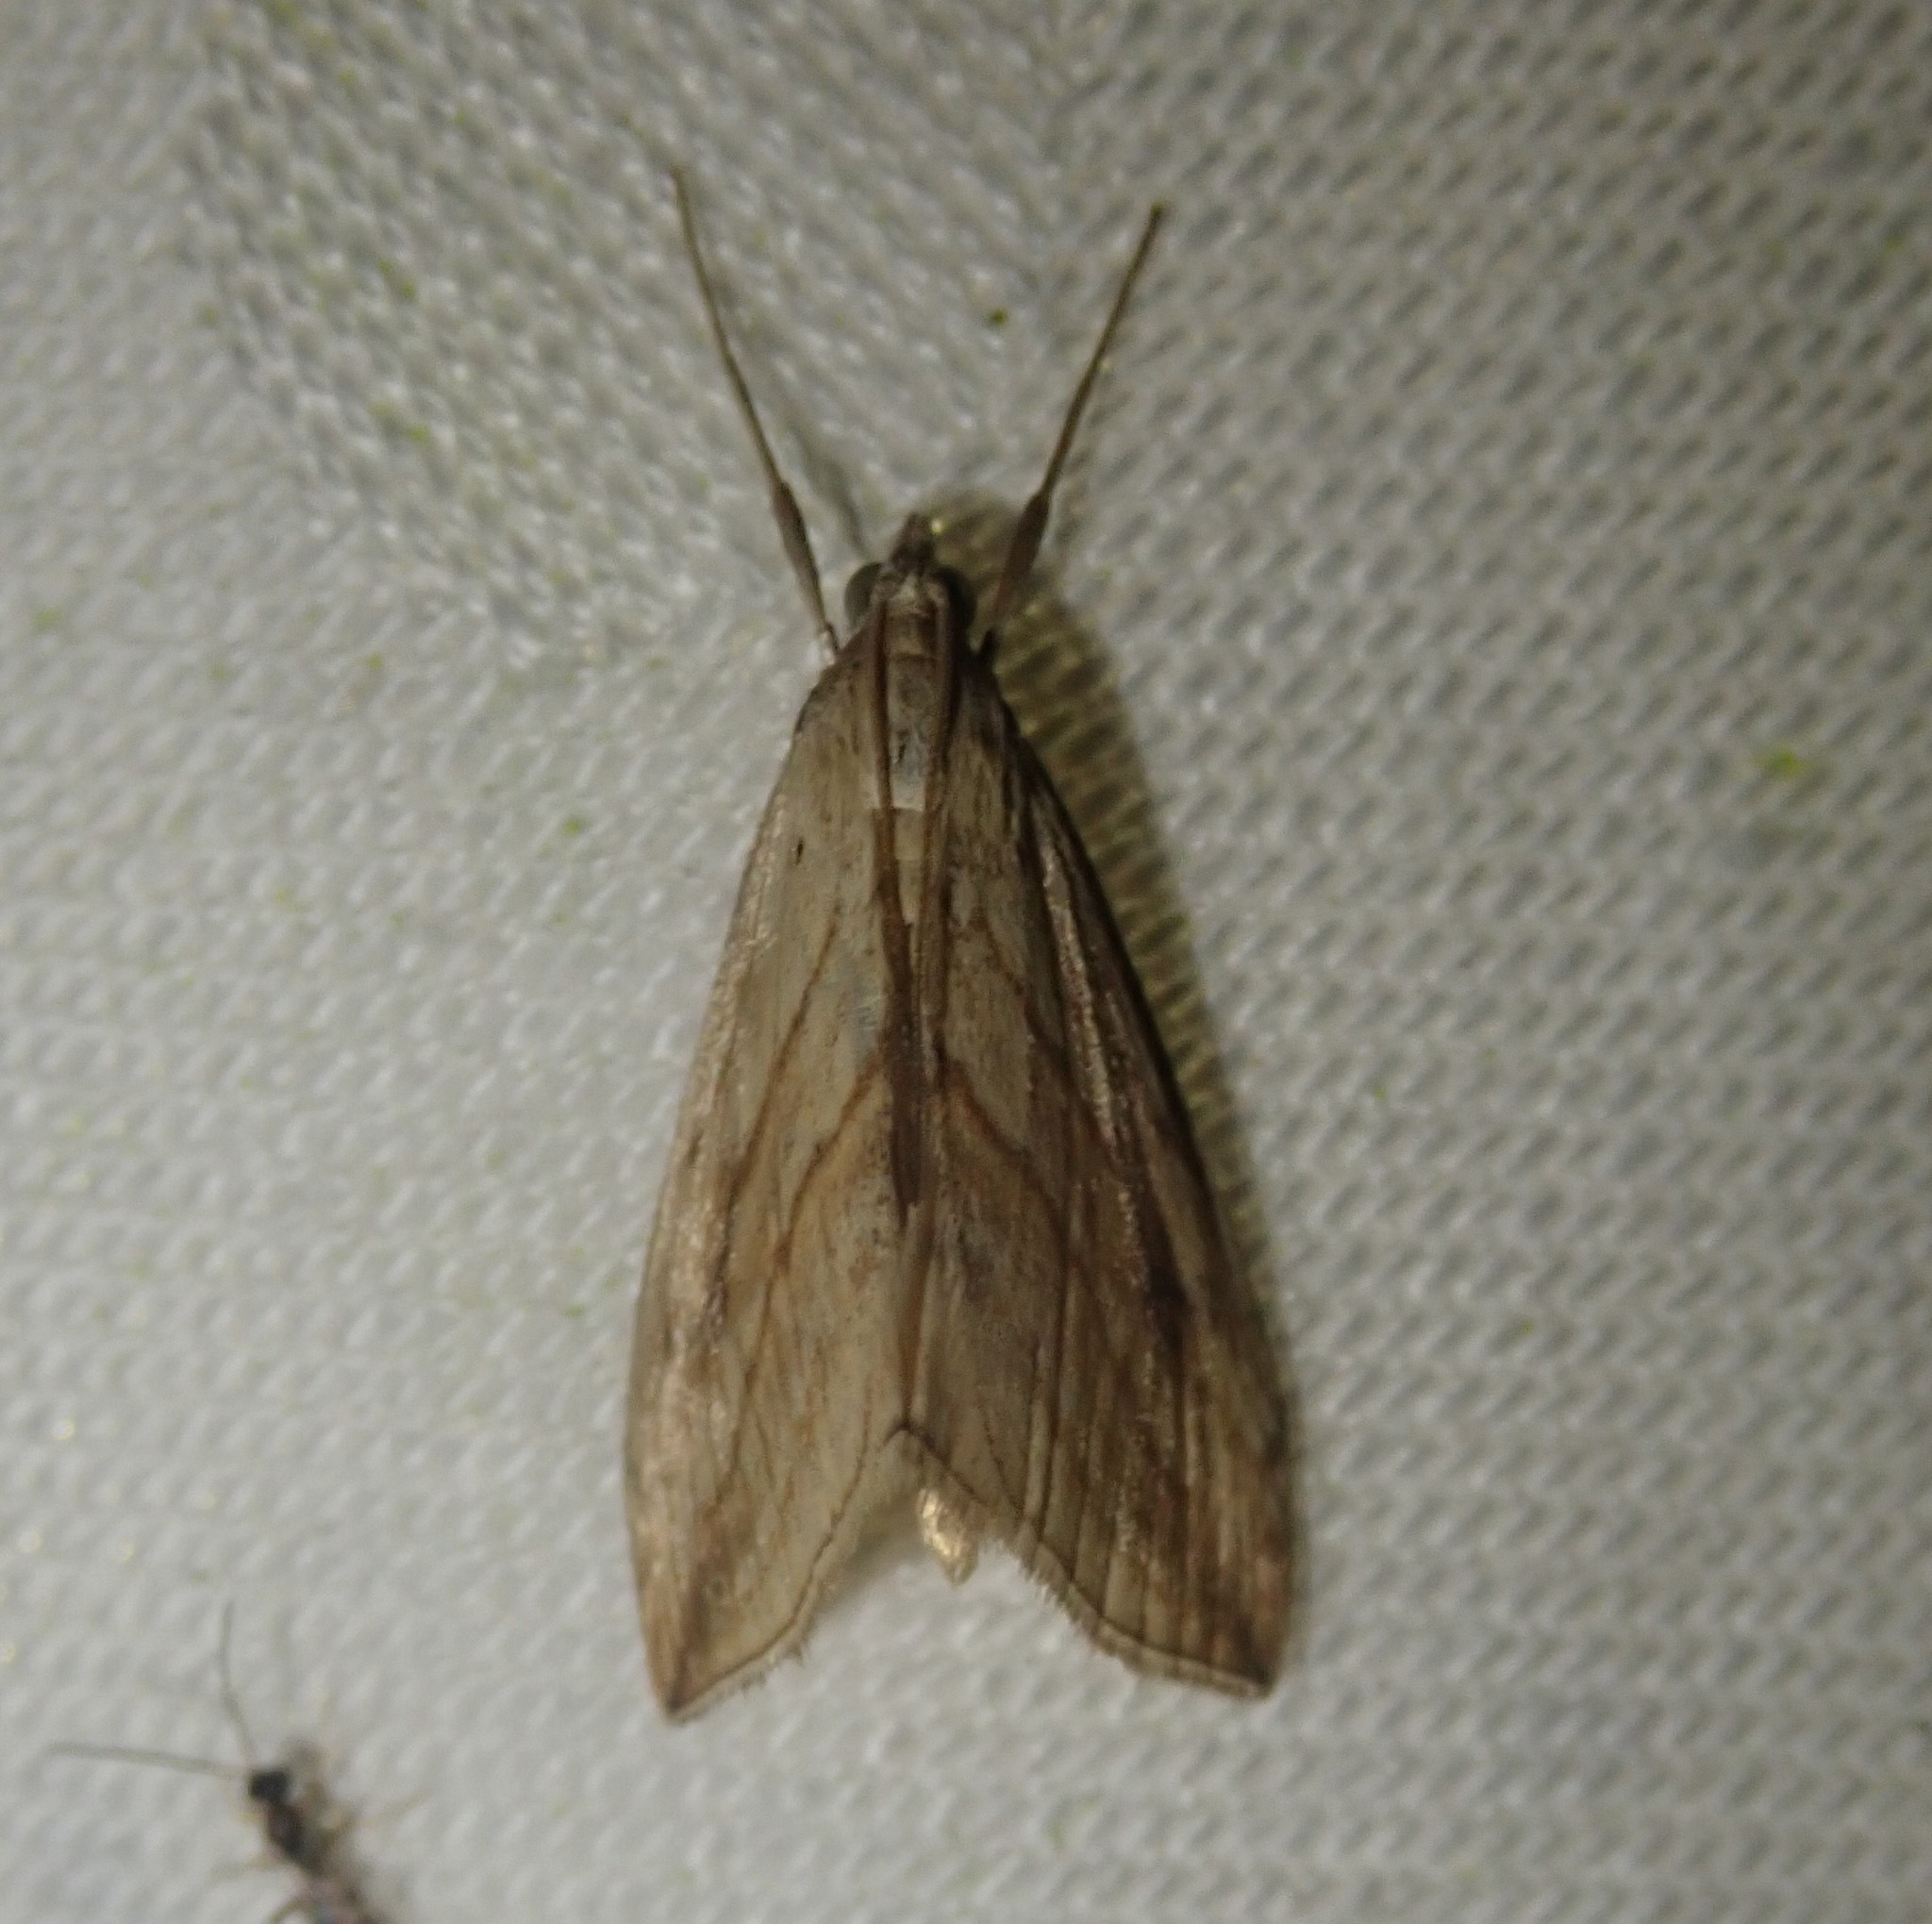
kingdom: Animalia
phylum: Arthropoda
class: Insecta
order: Lepidoptera
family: Crambidae
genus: Evergestis
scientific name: Evergestis forficalis
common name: Garden pebble
